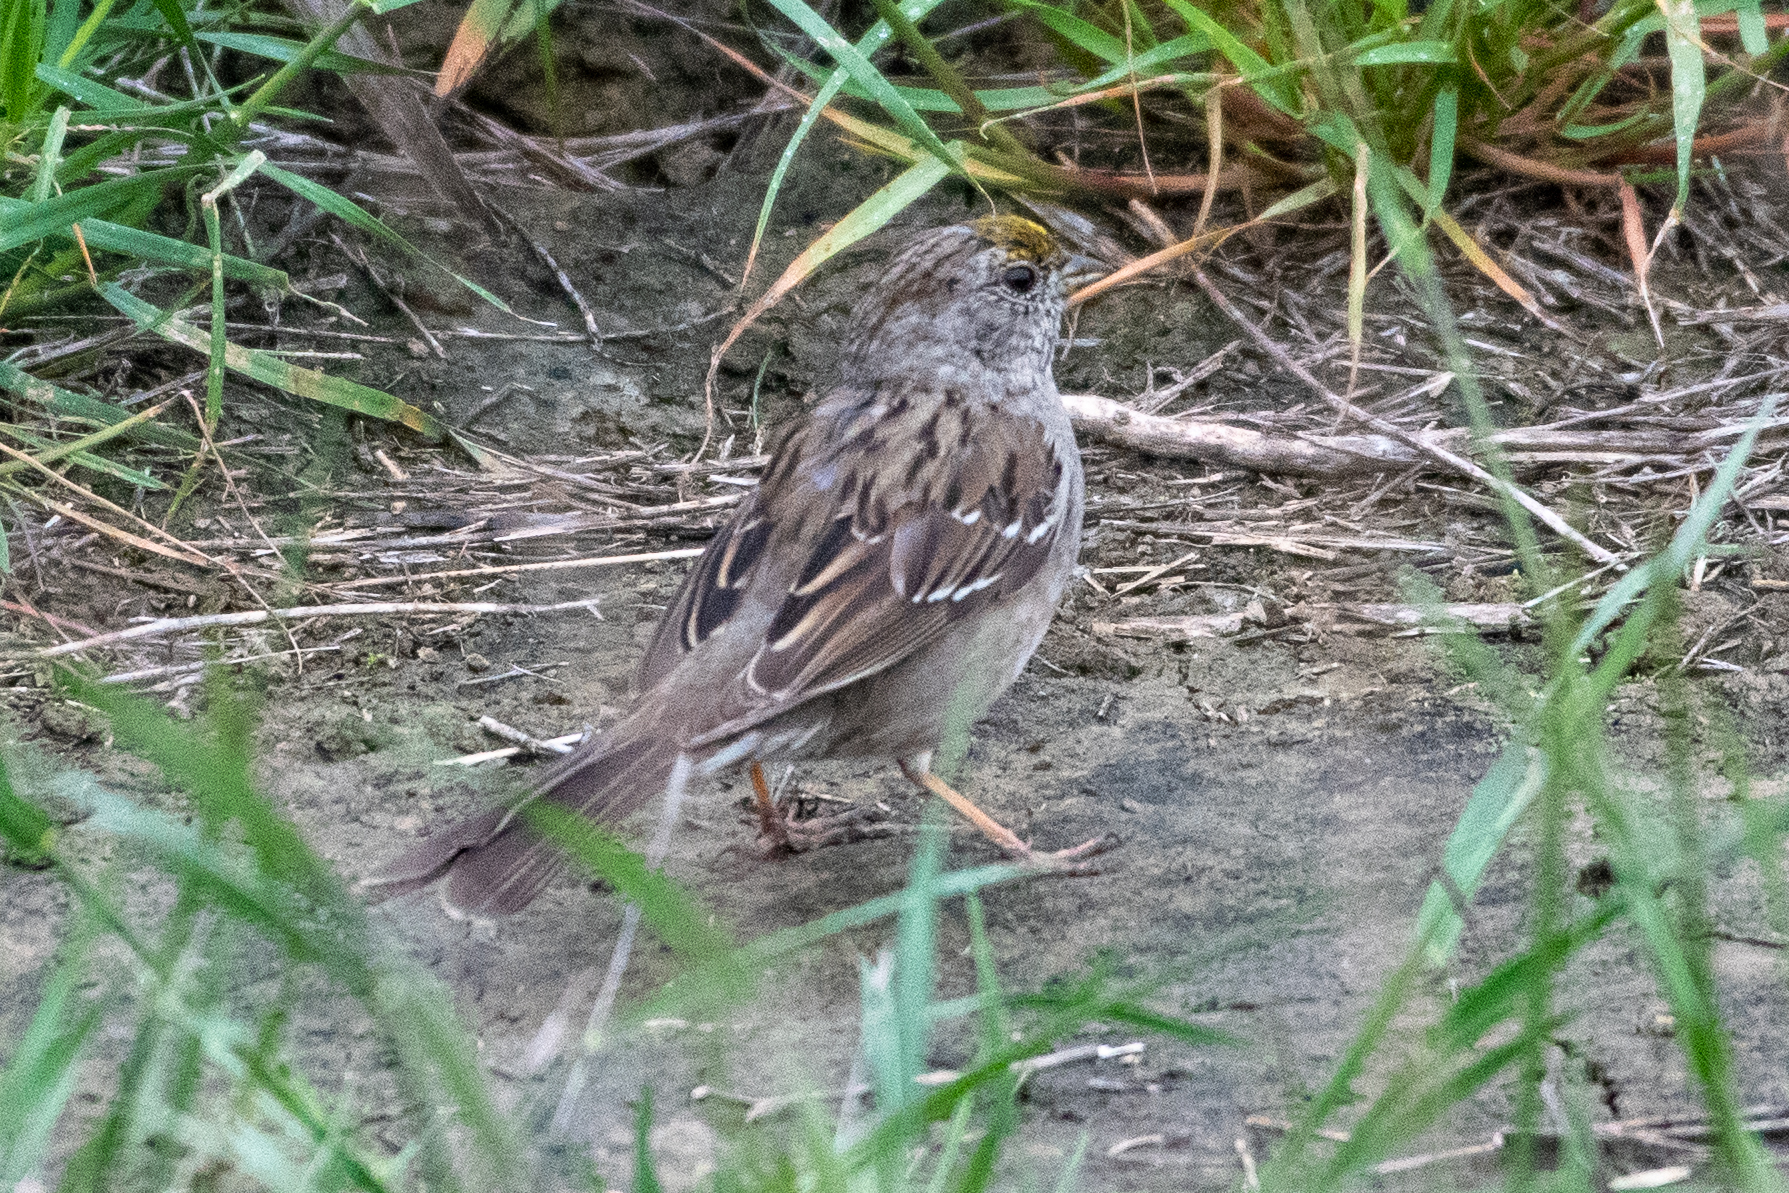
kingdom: Animalia
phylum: Chordata
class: Aves
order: Passeriformes
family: Passerellidae
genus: Zonotrichia
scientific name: Zonotrichia atricapilla
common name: Golden-crowned sparrow
